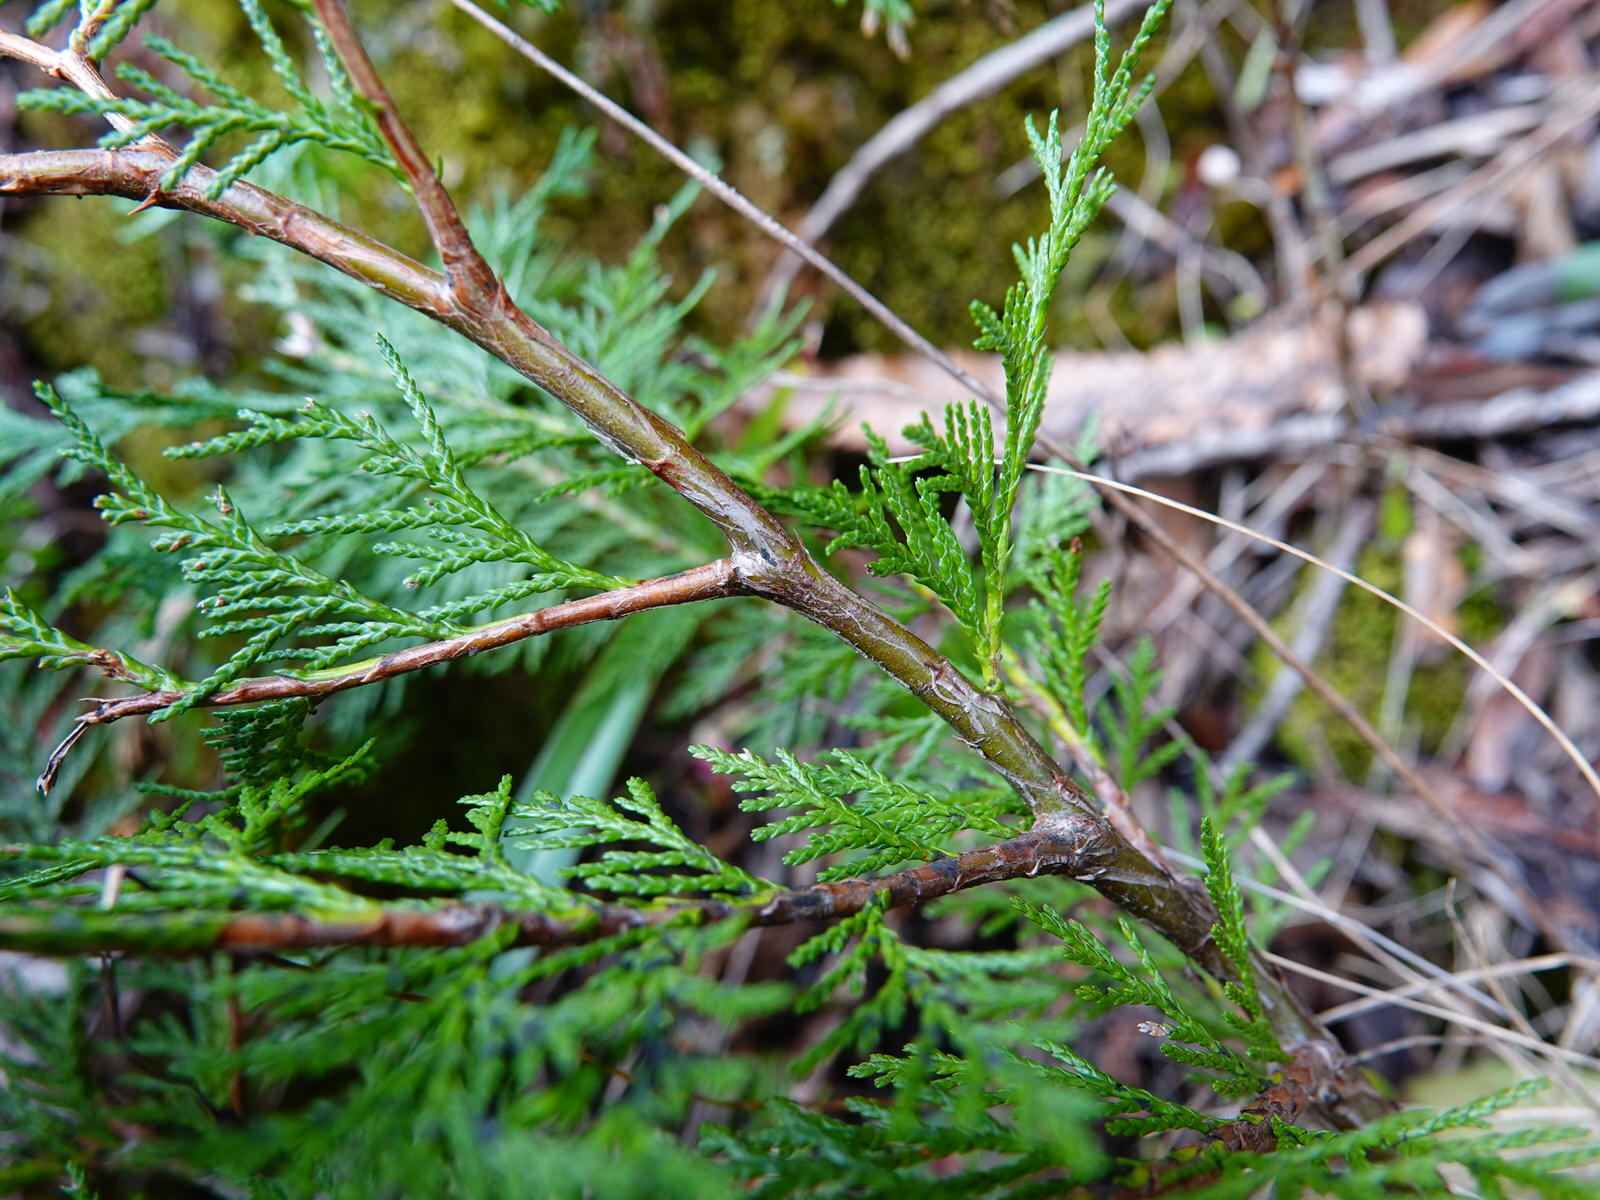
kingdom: Plantae
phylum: Tracheophyta
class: Pinopsida
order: Pinales
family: Cupressaceae
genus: Chamaecyparis
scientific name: Chamaecyparis lawsoniana
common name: Lawson's cypress
